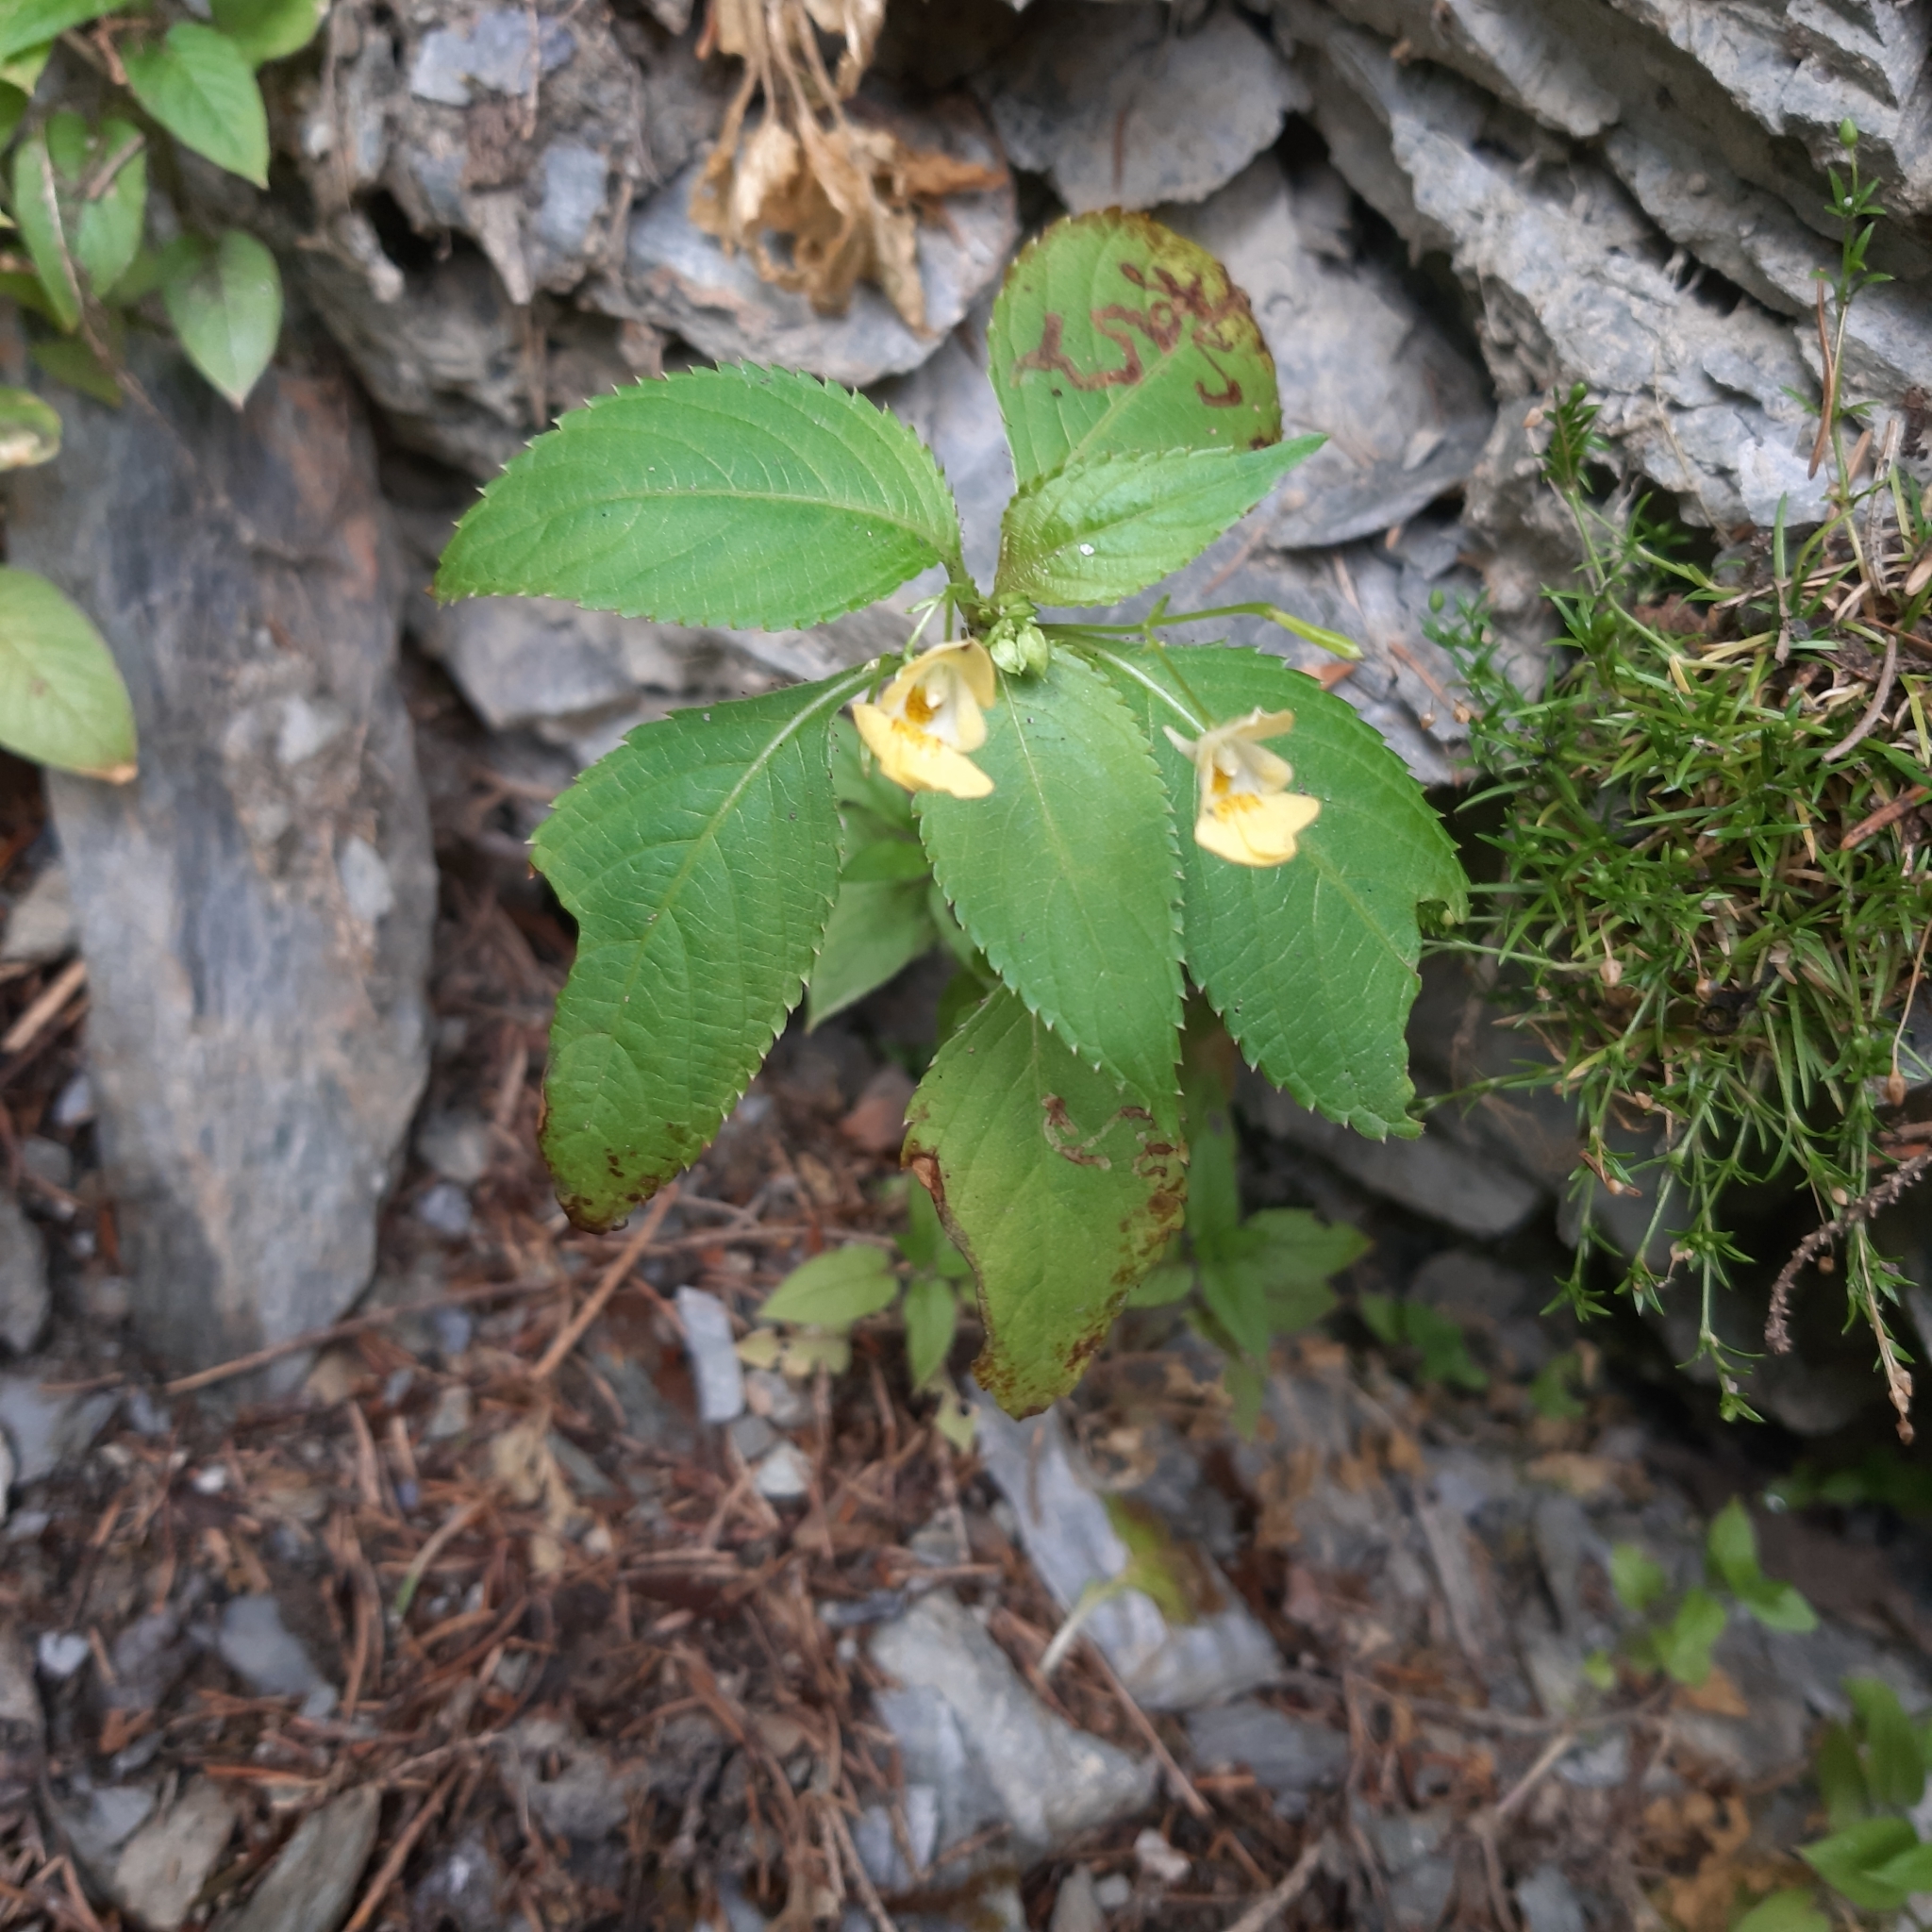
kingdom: Plantae
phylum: Tracheophyta
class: Magnoliopsida
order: Ericales
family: Balsaminaceae
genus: Impatiens
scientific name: Impatiens parviflora
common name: Small balsam
